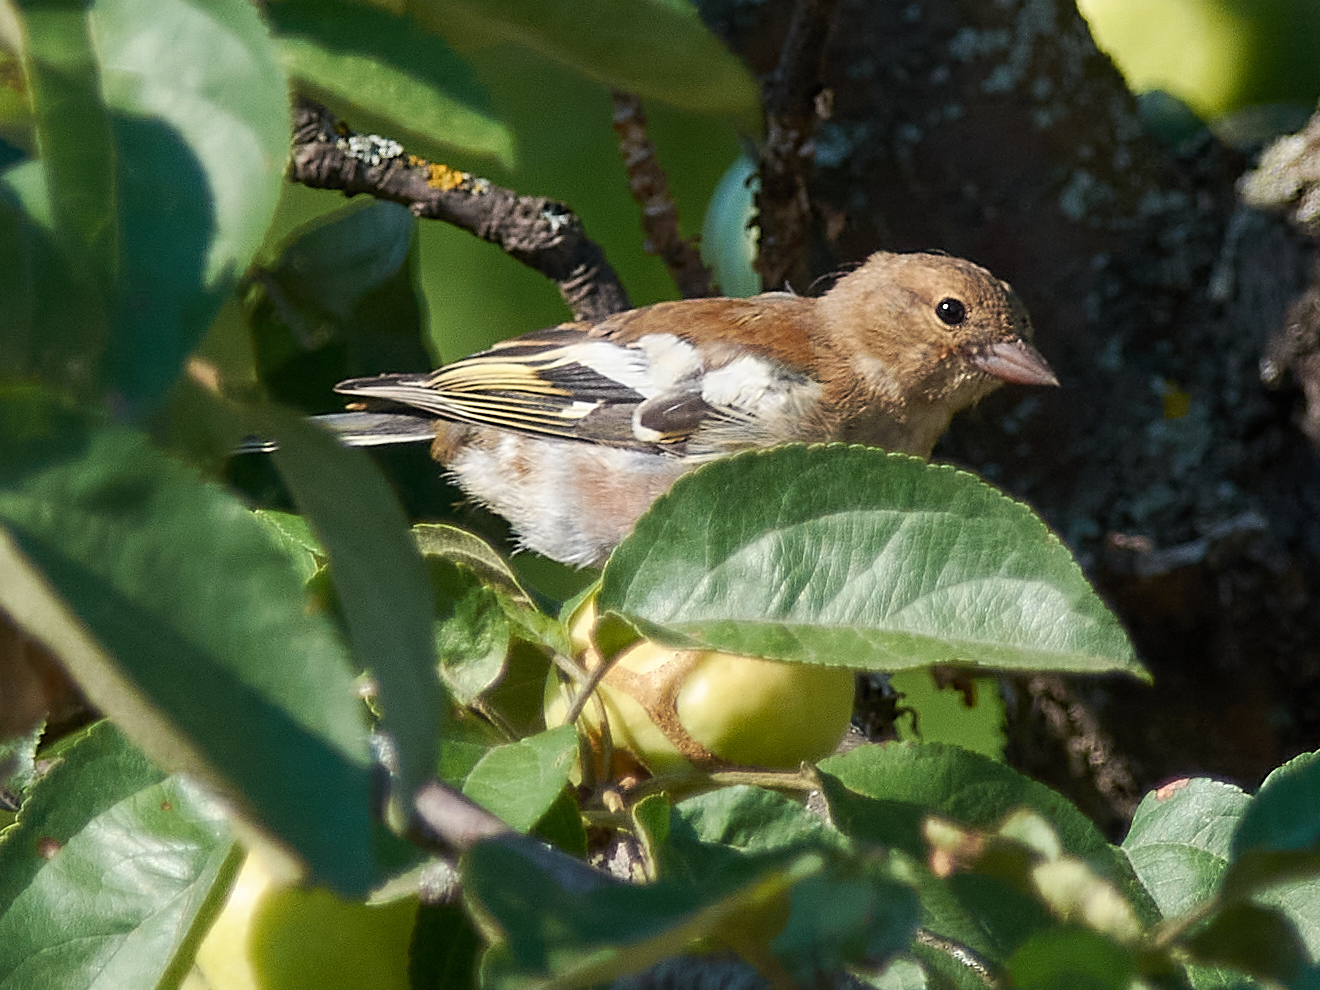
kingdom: Animalia
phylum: Chordata
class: Aves
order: Passeriformes
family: Fringillidae
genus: Fringilla
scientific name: Fringilla coelebs
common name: Common chaffinch
